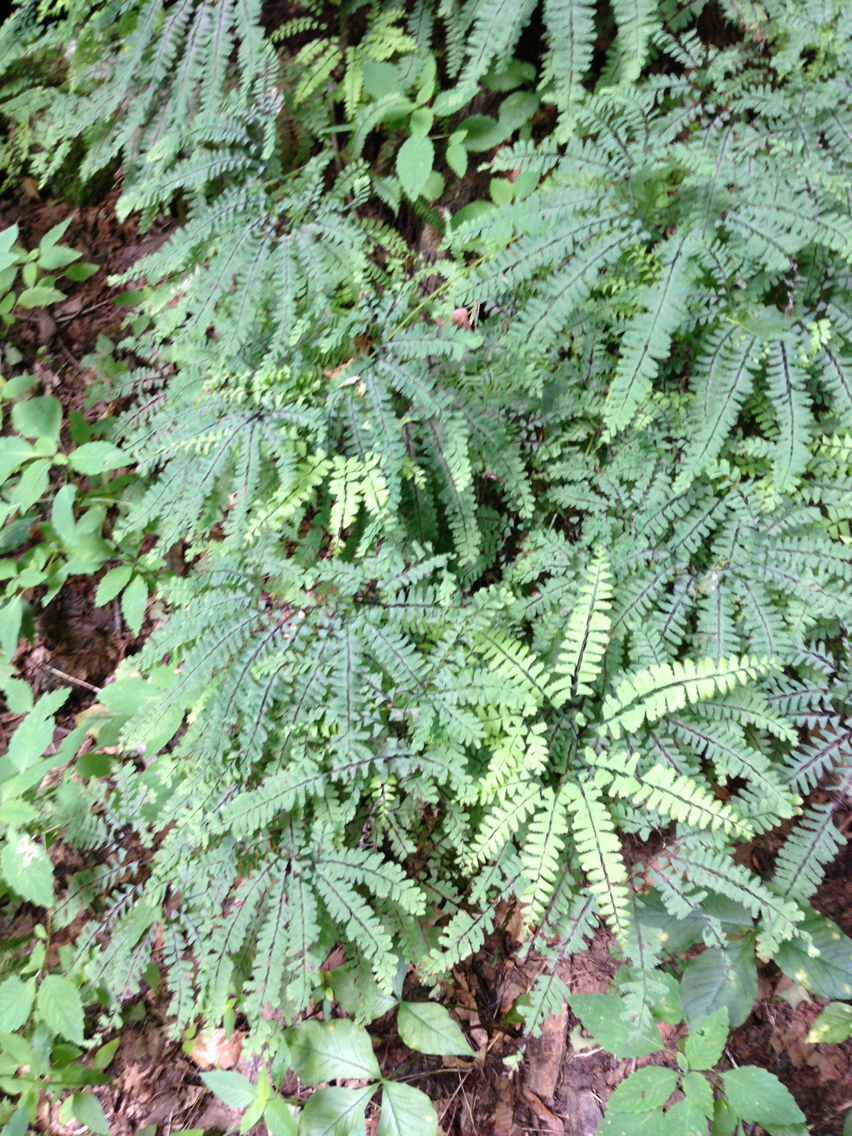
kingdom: Plantae
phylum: Tracheophyta
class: Polypodiopsida
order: Polypodiales
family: Pteridaceae
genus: Adiantum
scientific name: Adiantum pedatum
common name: Five-finger fern
